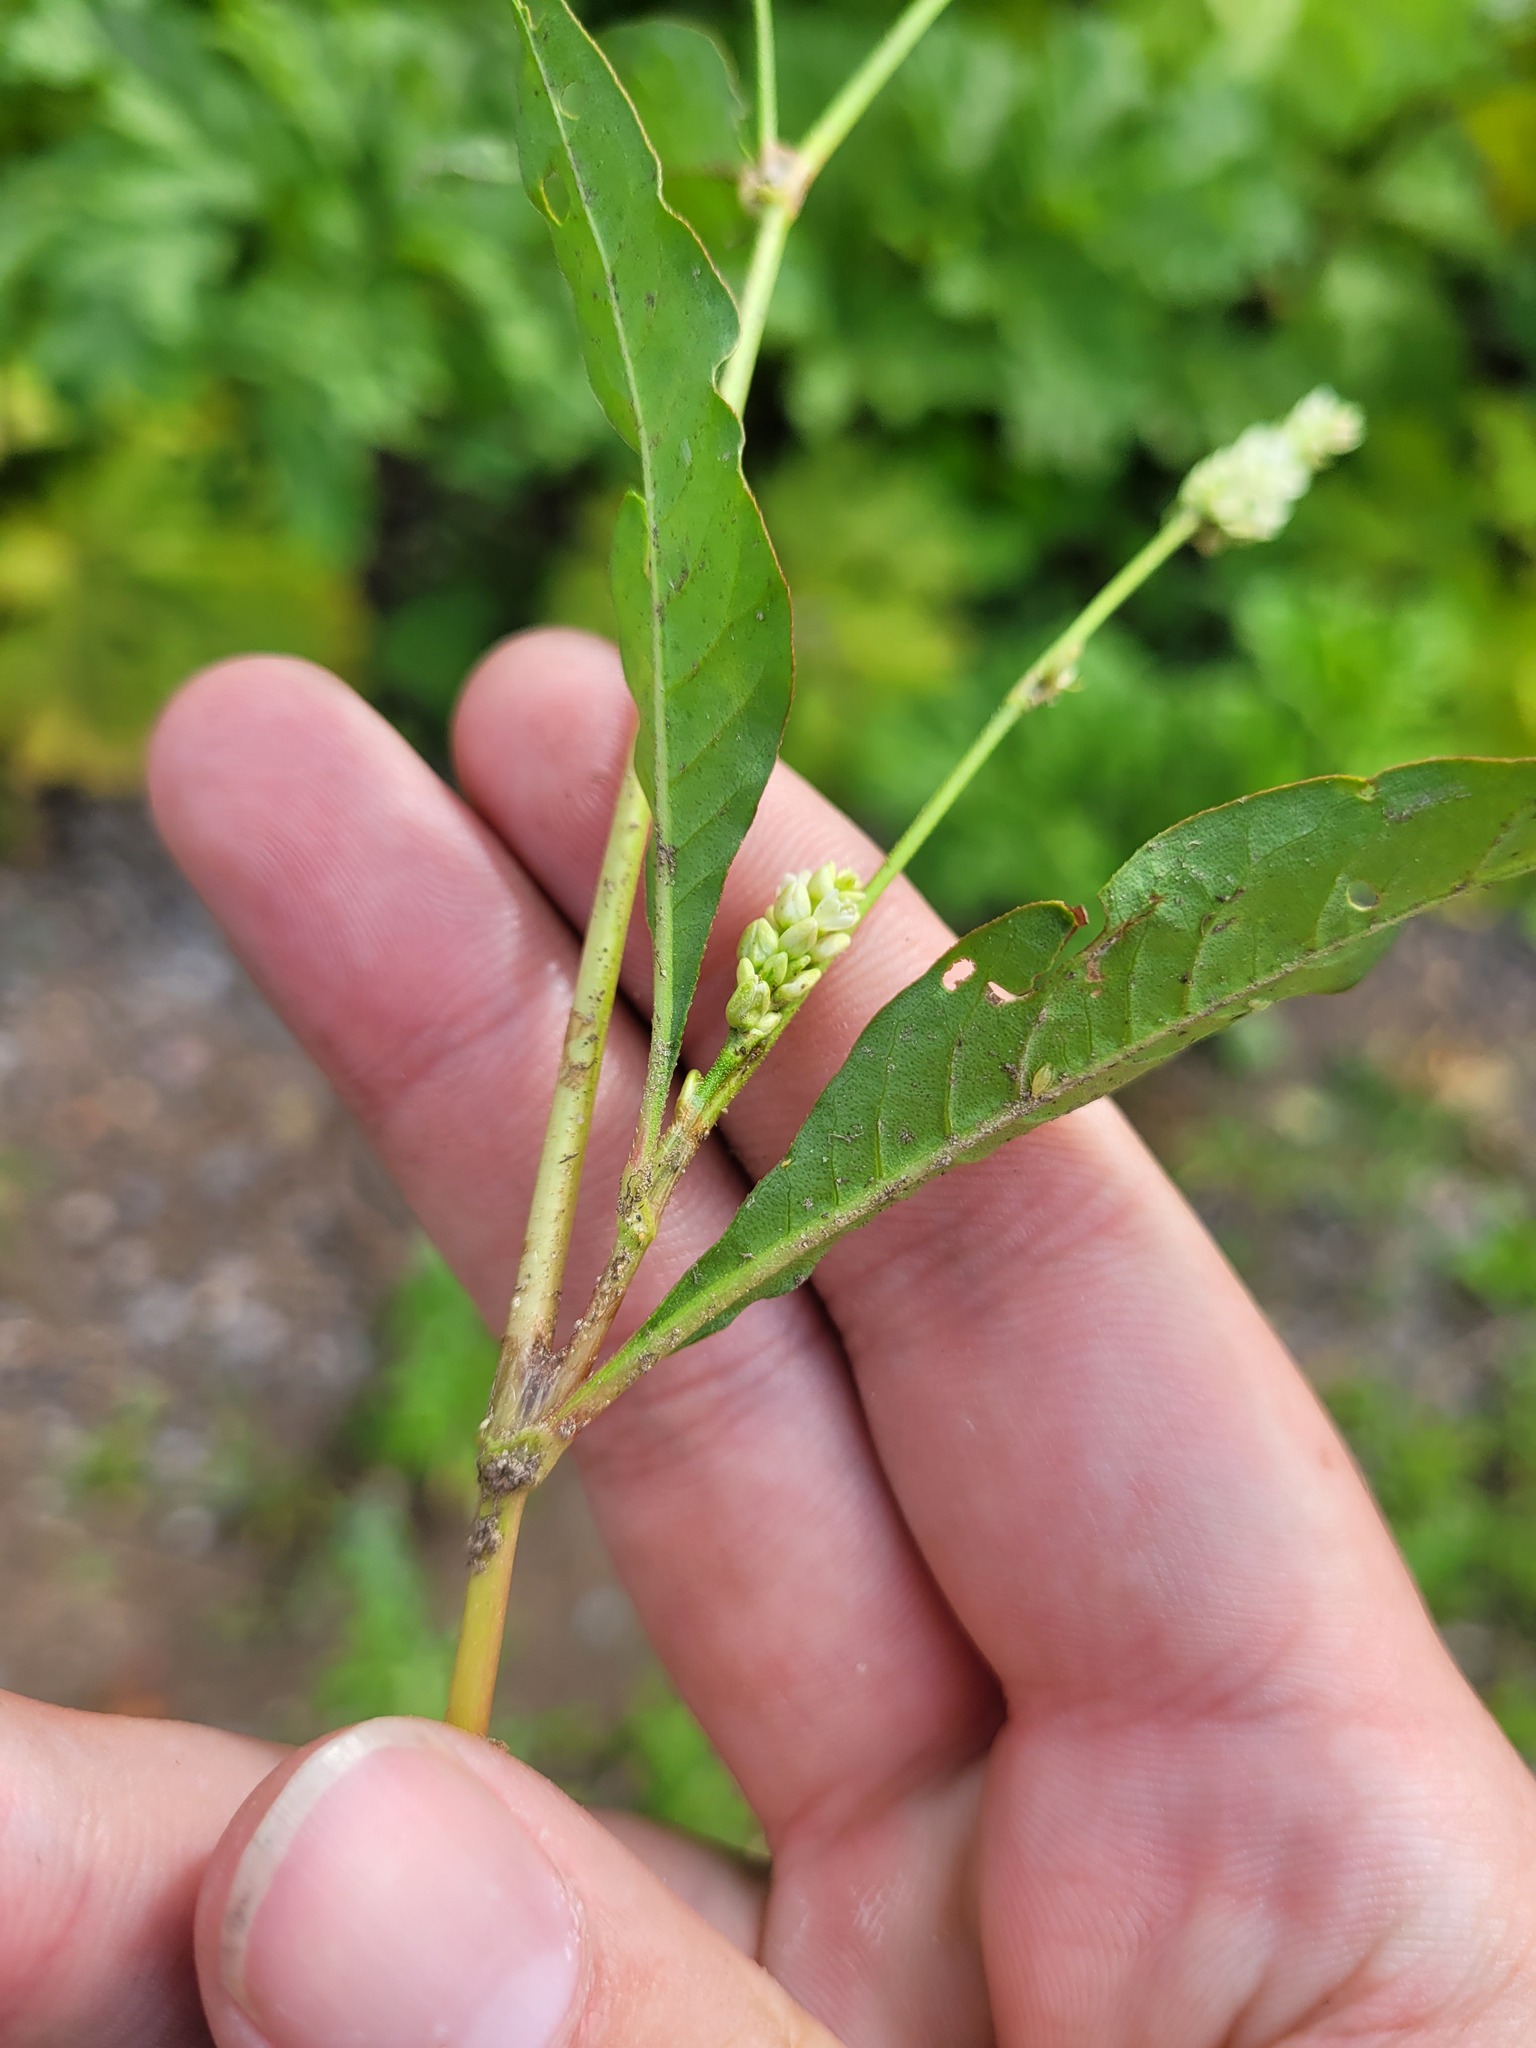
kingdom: Plantae
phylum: Tracheophyta
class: Magnoliopsida
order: Caryophyllales
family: Polygonaceae
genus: Persicaria
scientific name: Persicaria lapathifolia
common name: Curlytop knotweed
